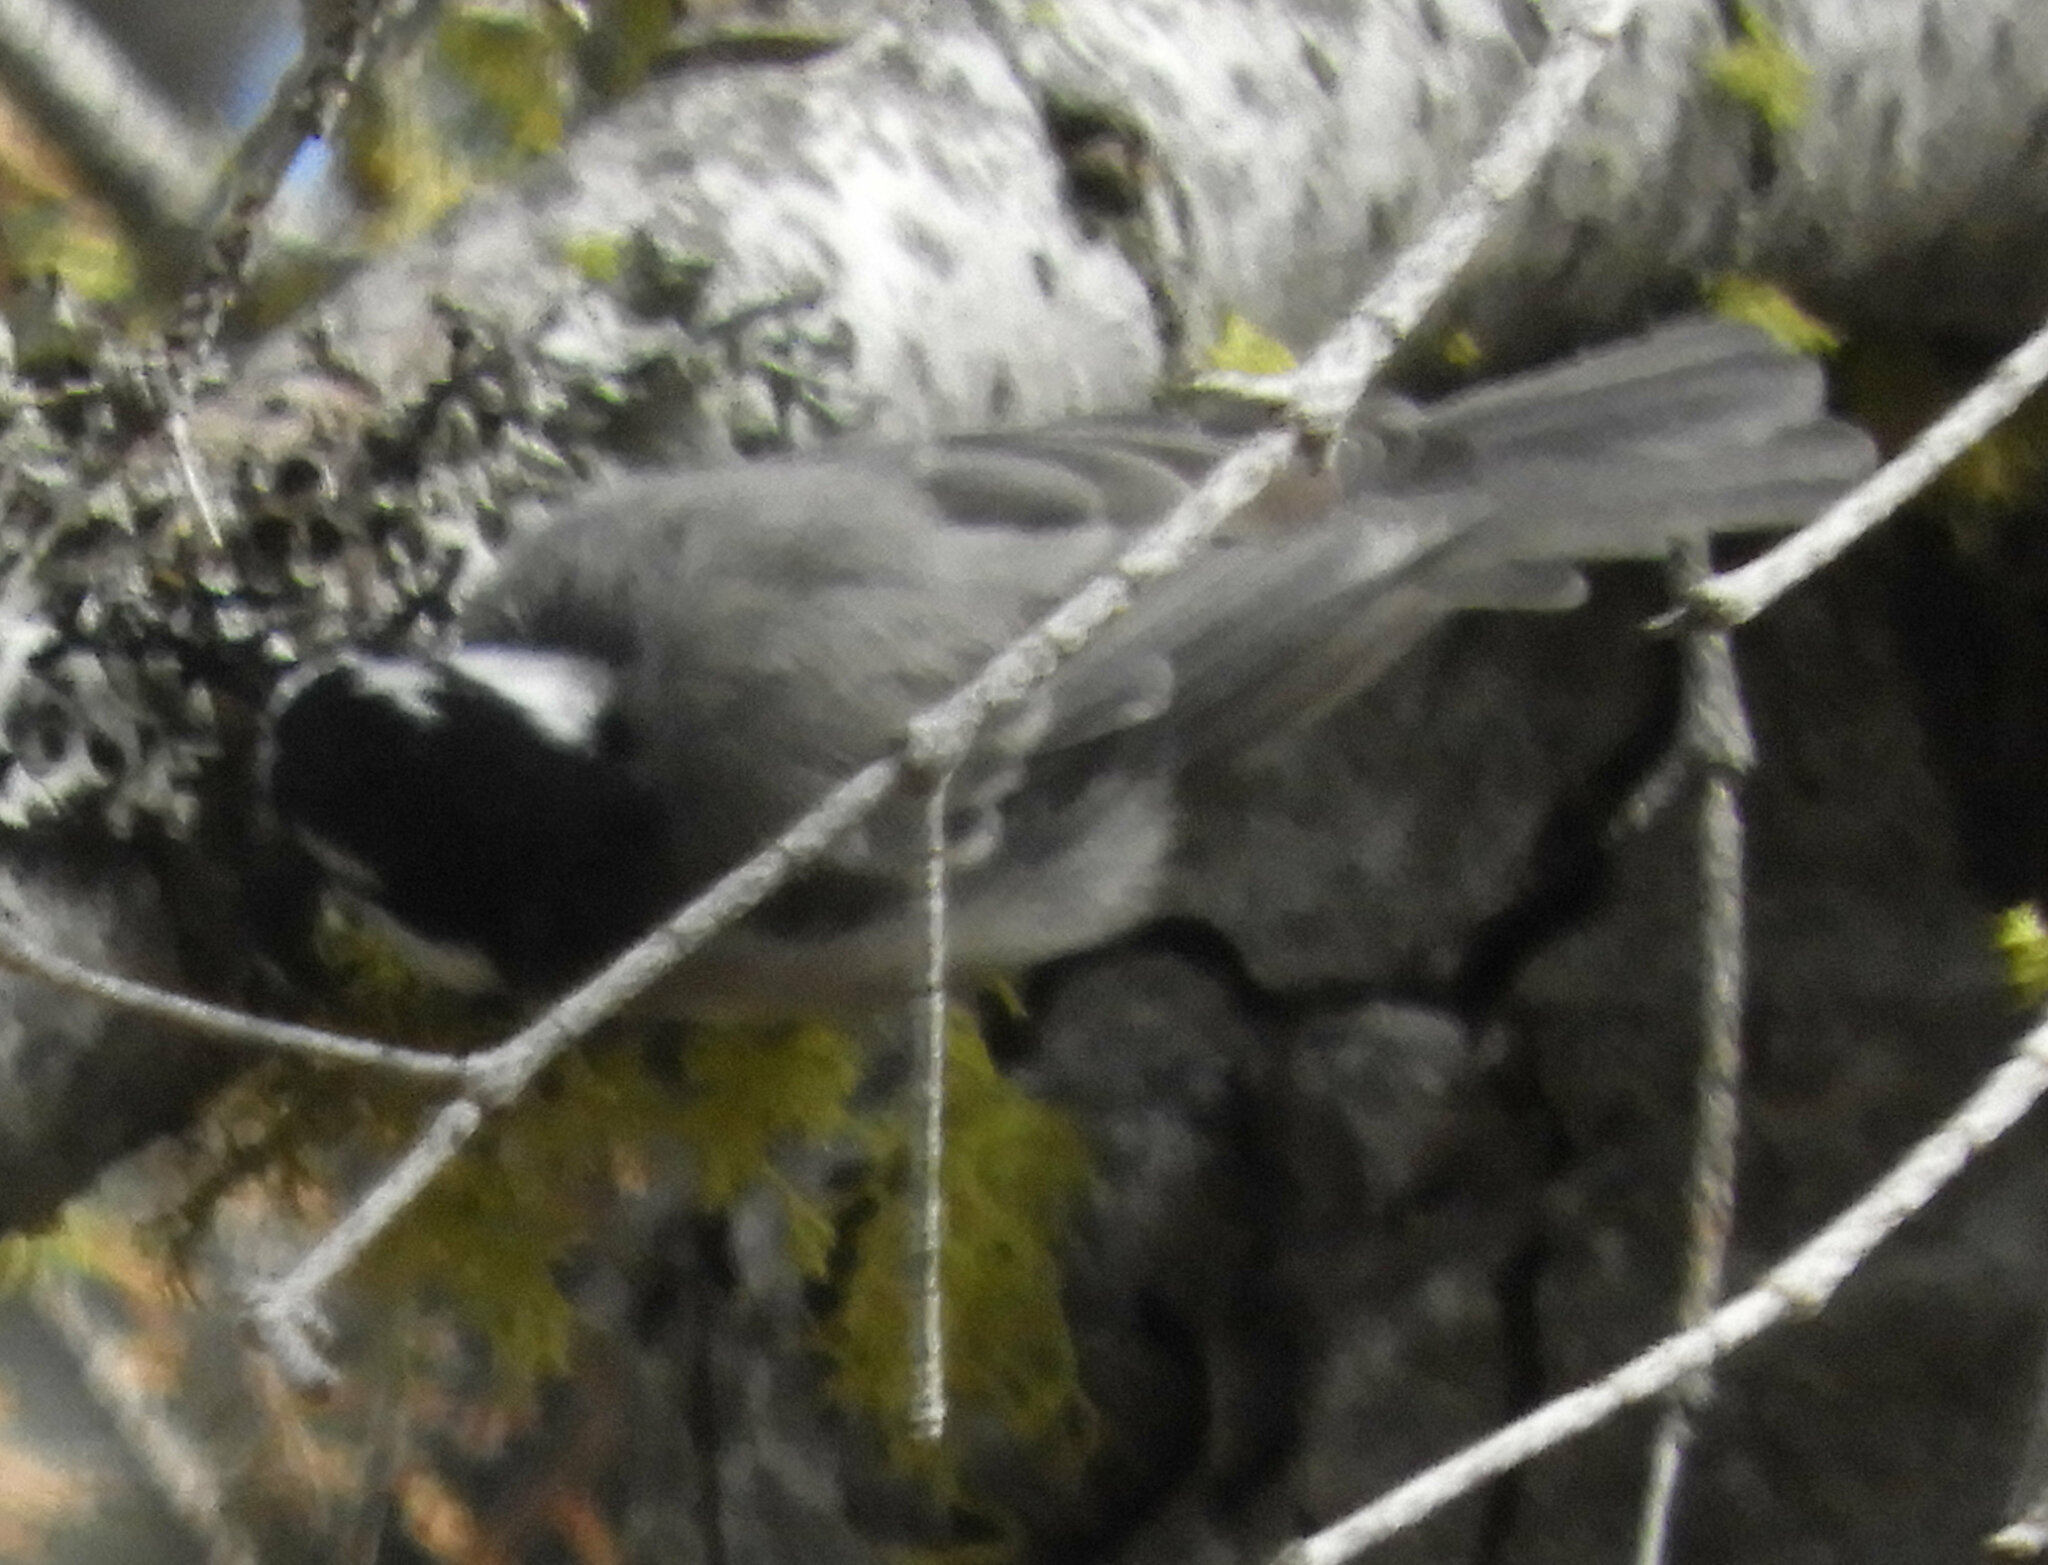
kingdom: Animalia
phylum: Chordata
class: Aves
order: Passeriformes
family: Paridae
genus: Poecile
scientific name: Poecile gambeli
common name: Mountain chickadee
